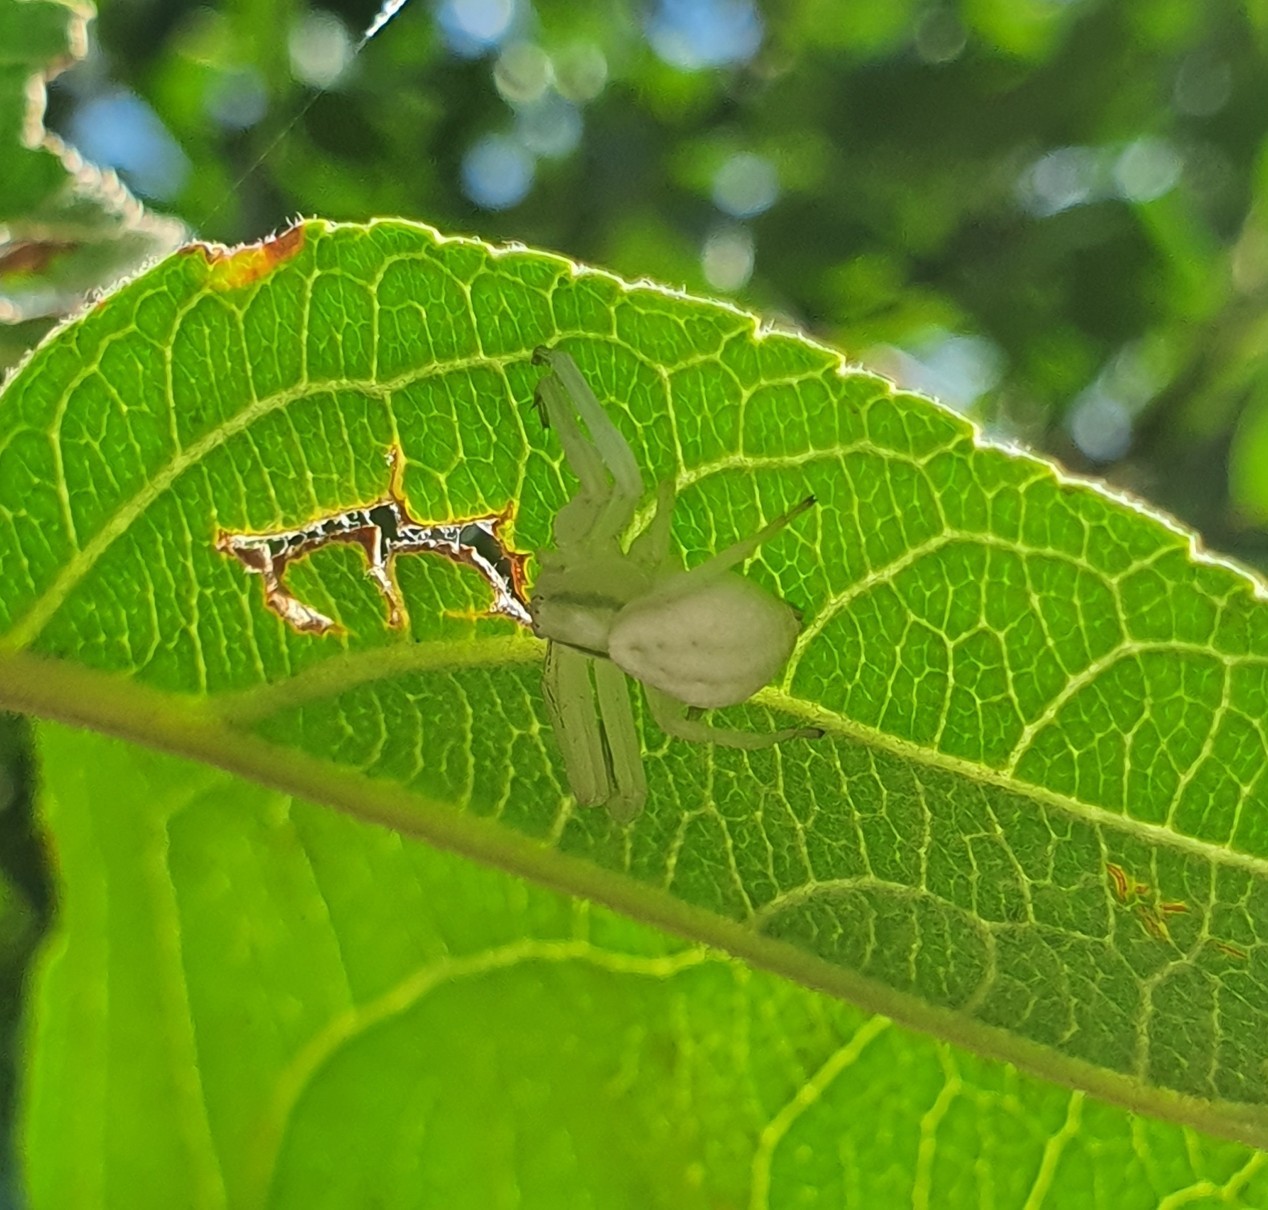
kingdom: Animalia
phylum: Arthropoda
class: Arachnida
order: Araneae
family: Thomisidae
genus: Misumena
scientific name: Misumena vatia
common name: Goldenrod crab spider
